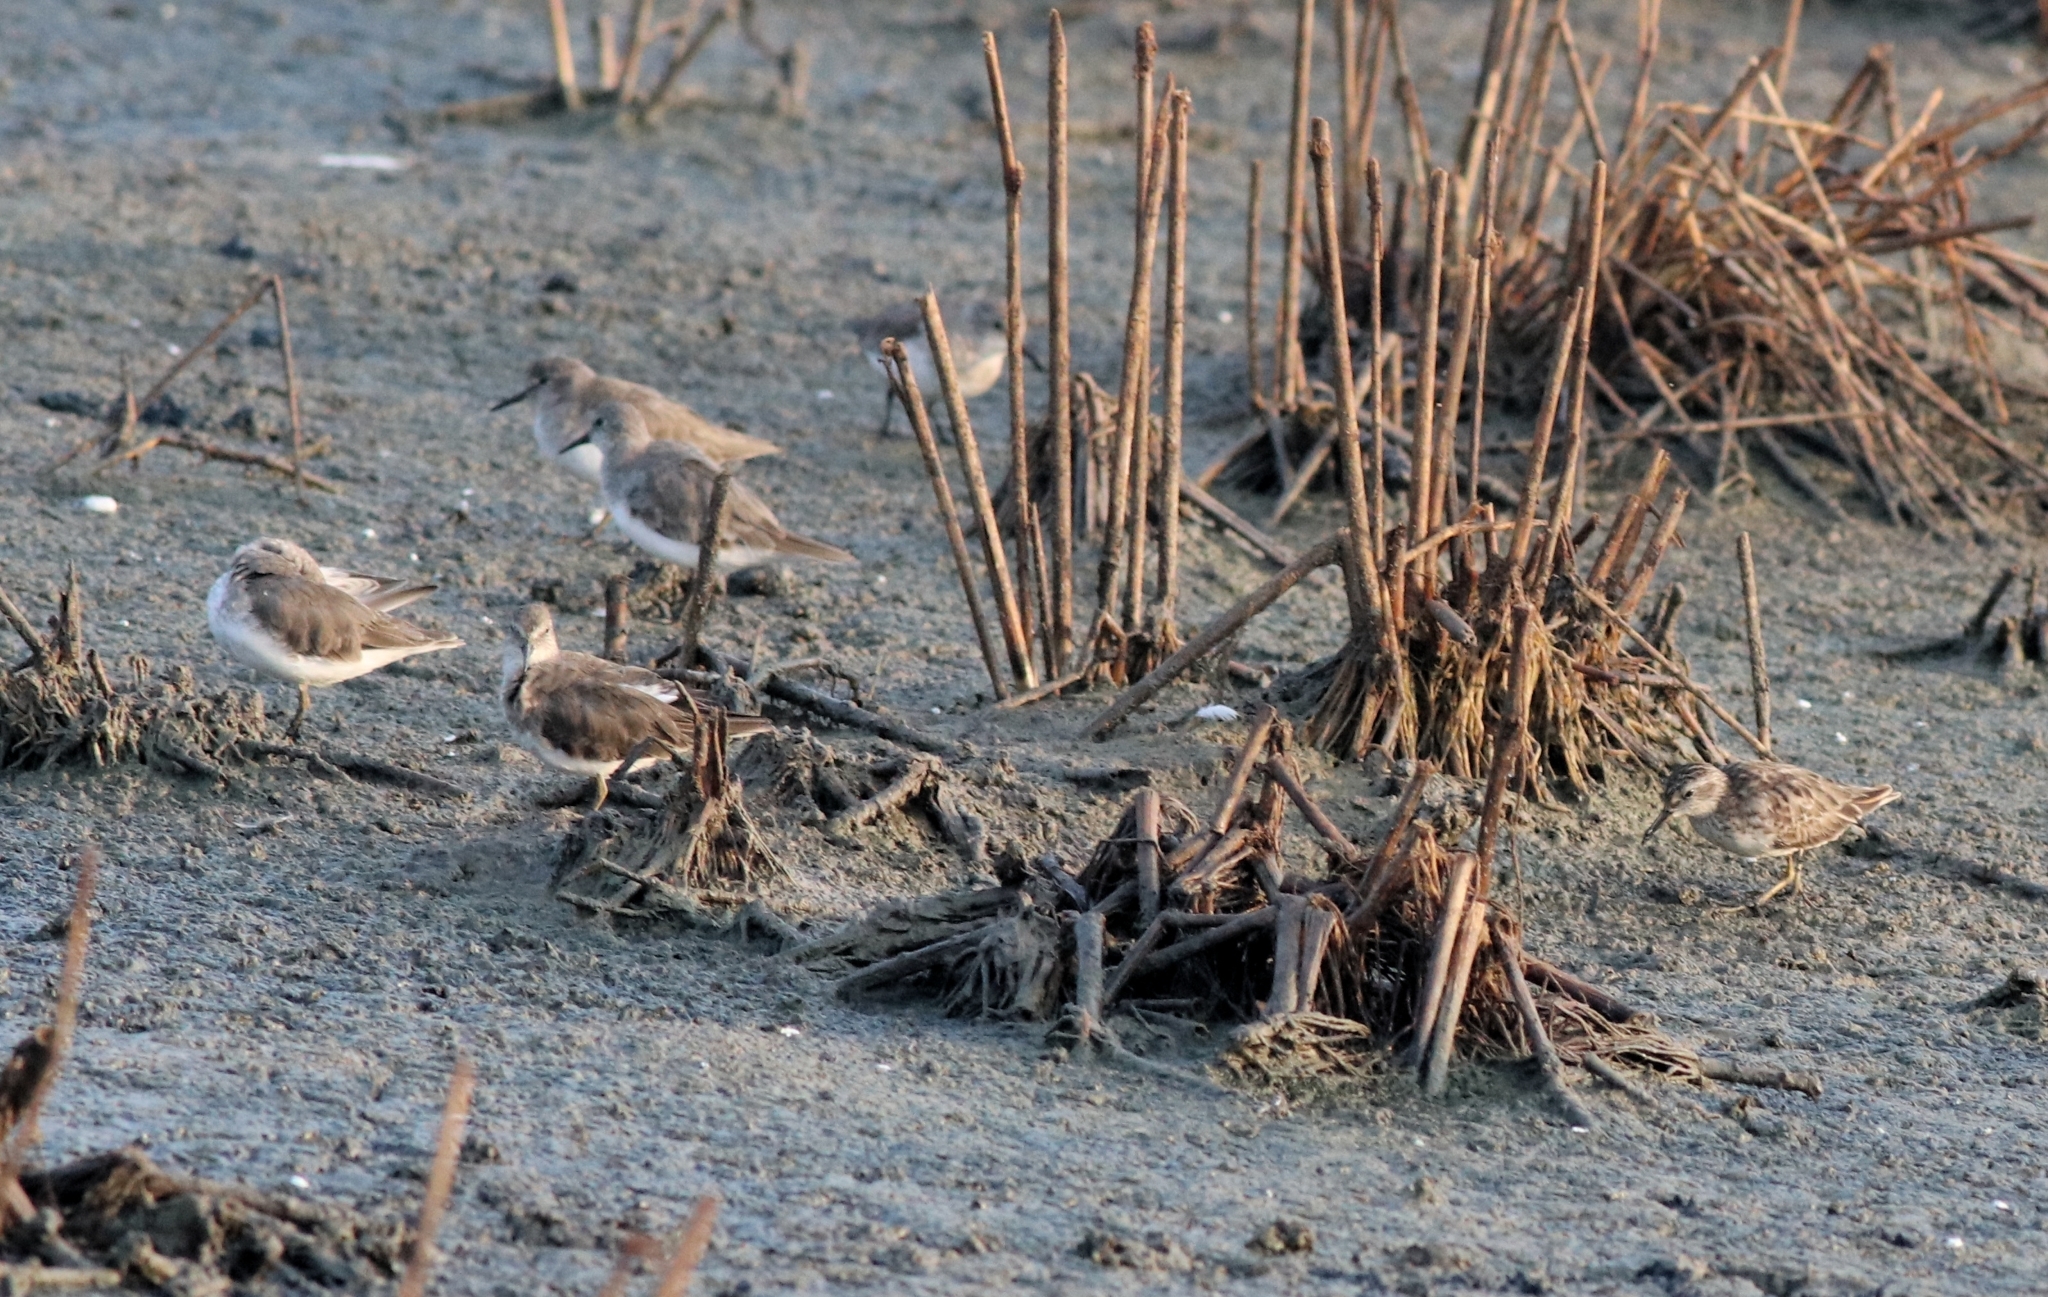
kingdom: Animalia
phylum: Chordata
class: Aves
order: Charadriiformes
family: Scolopacidae
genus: Calidris
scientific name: Calidris temminckii
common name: Temminck's stint
